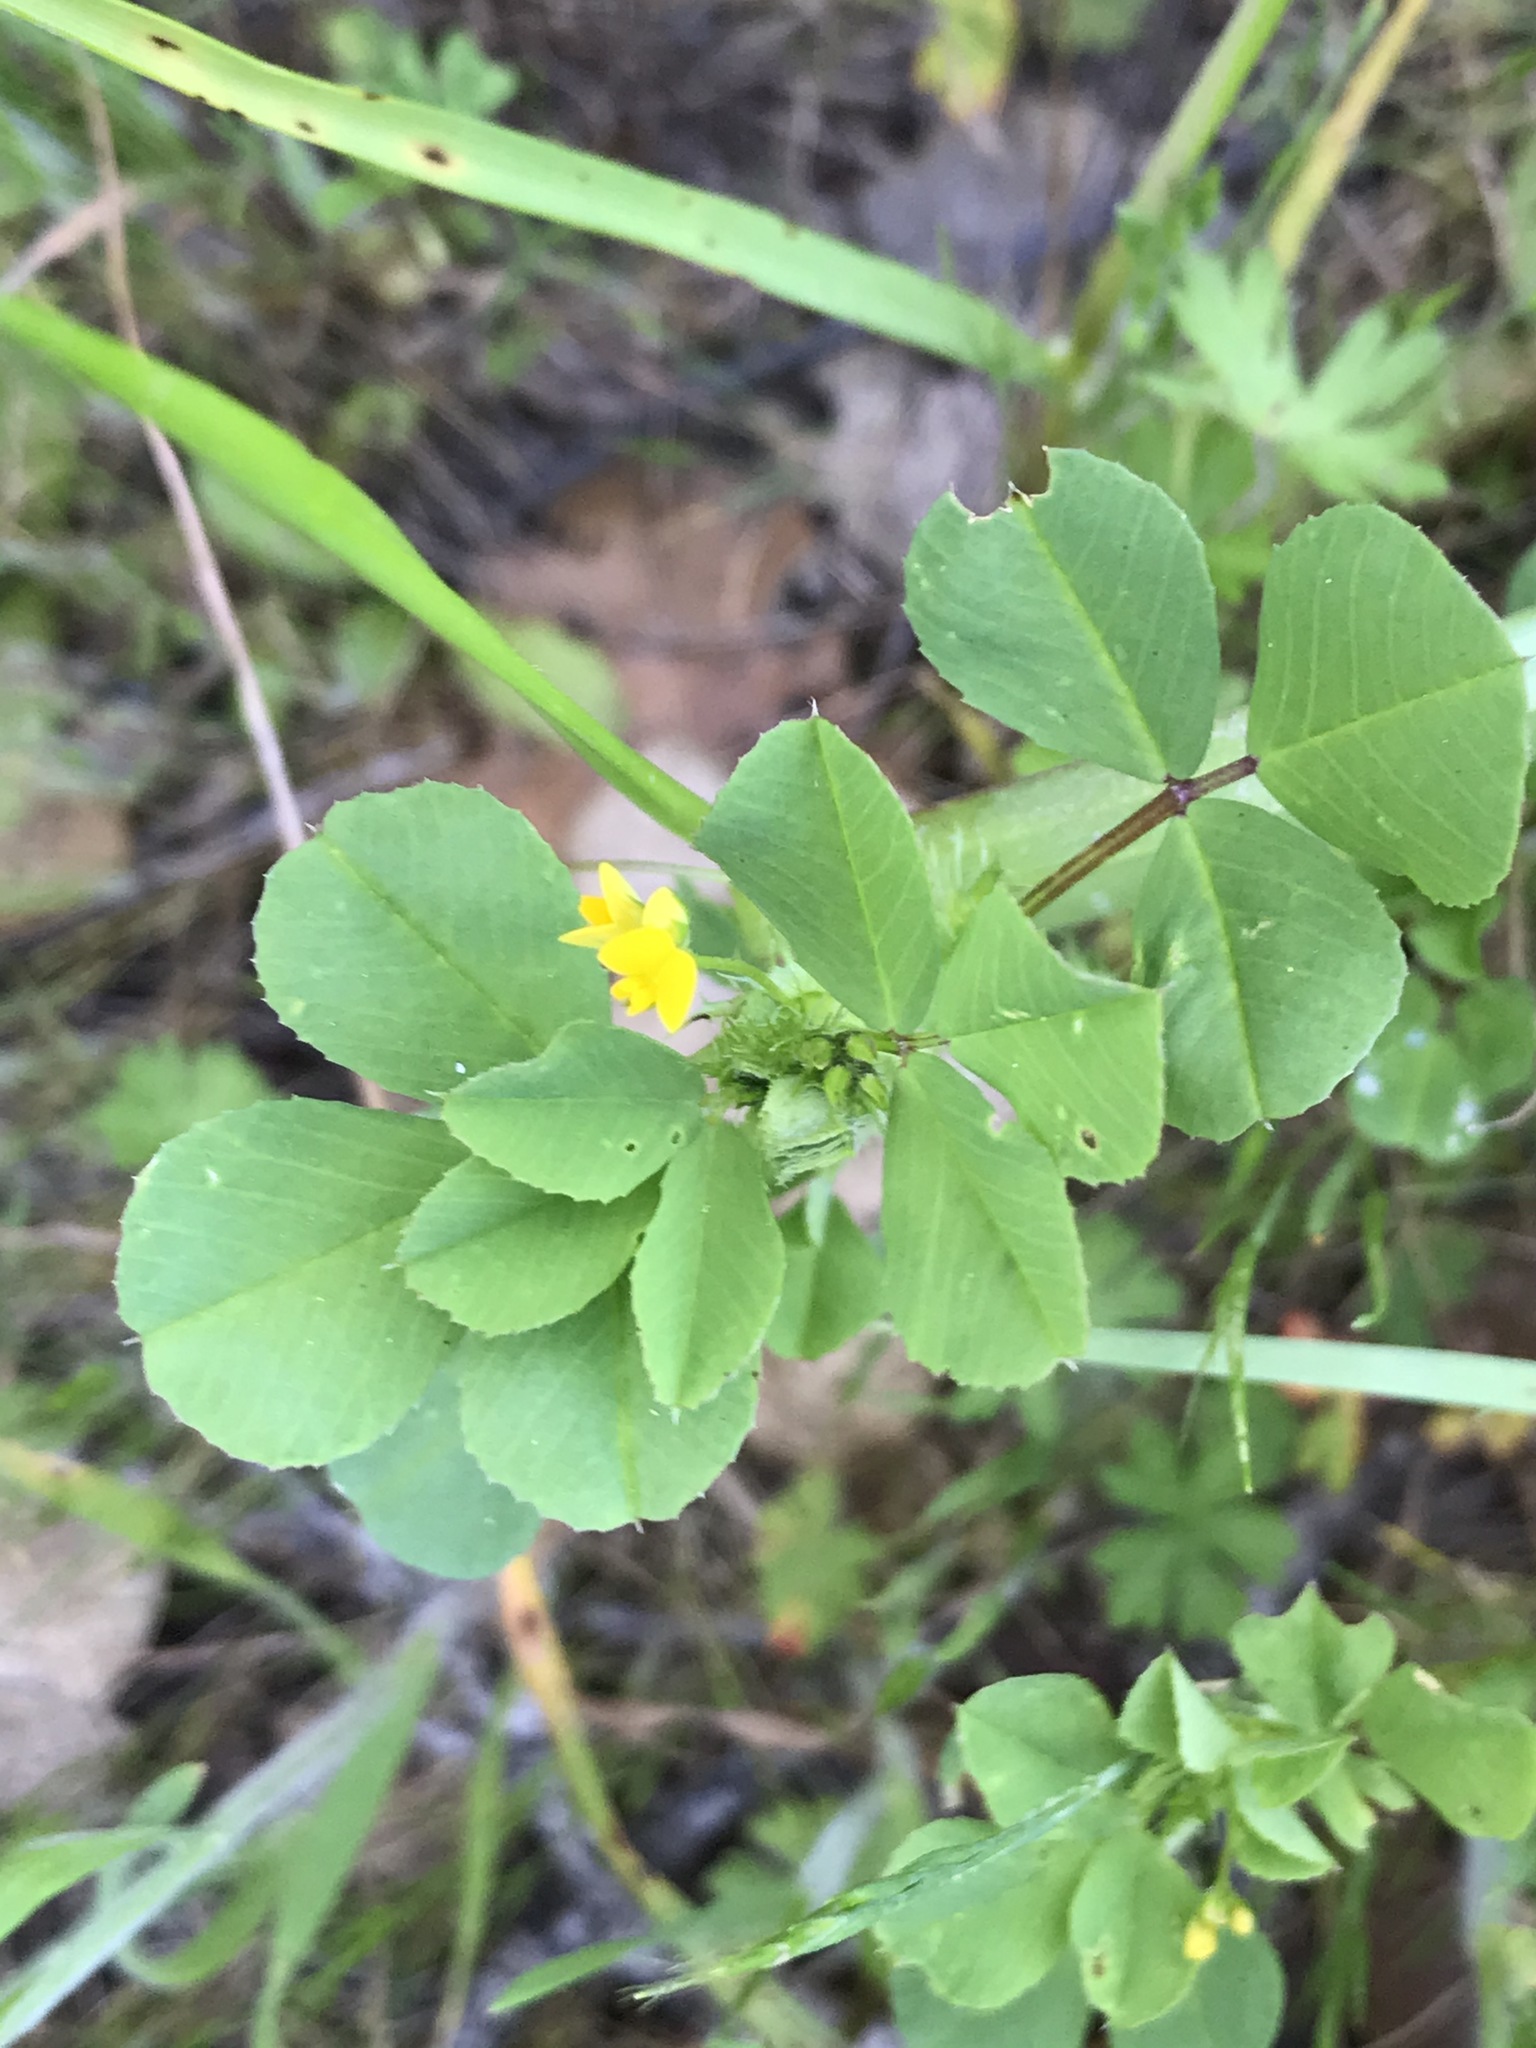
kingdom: Plantae
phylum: Tracheophyta
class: Magnoliopsida
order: Fabales
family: Fabaceae
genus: Medicago
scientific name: Medicago polymorpha
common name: Burclover
